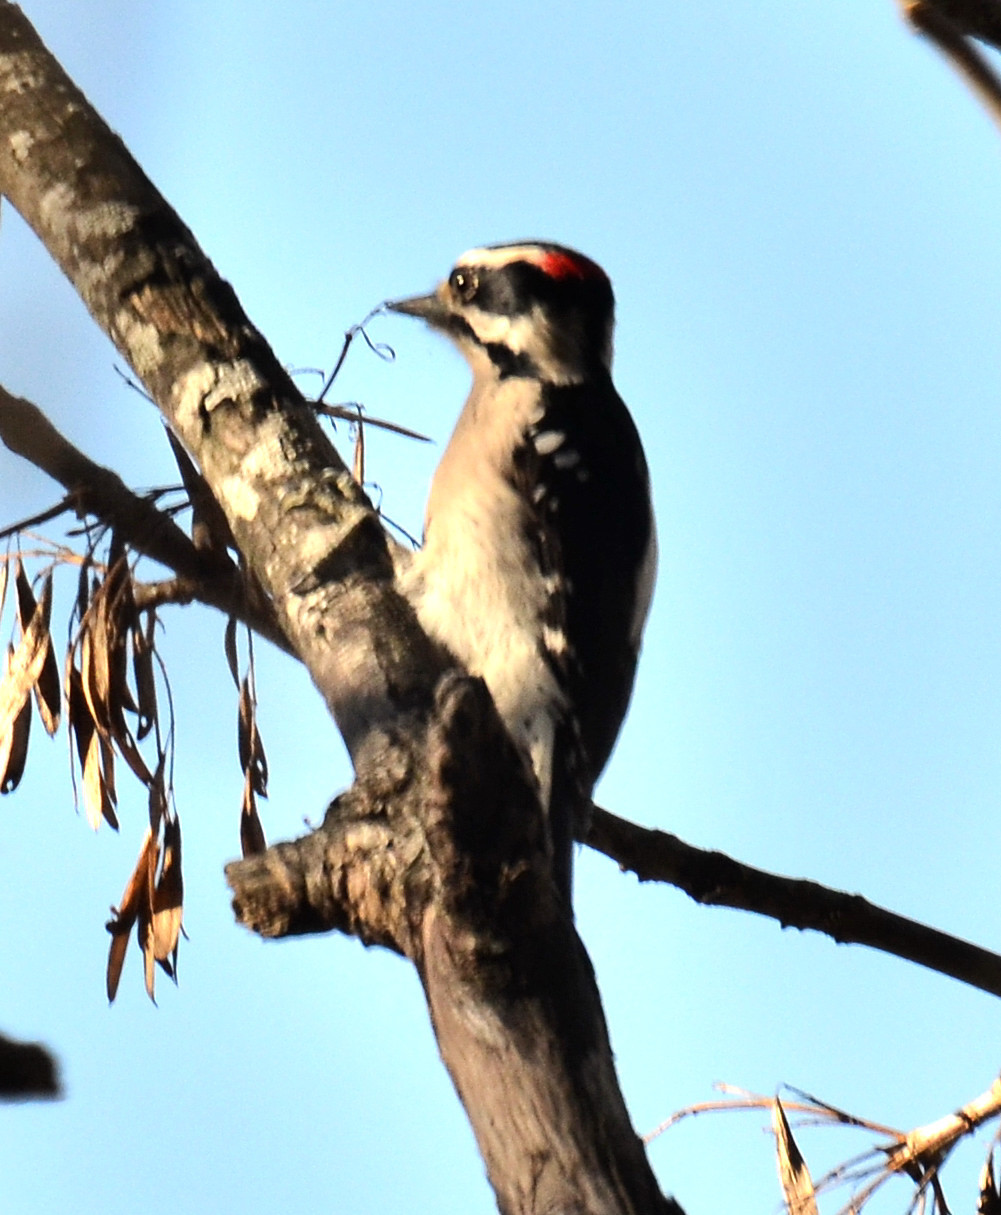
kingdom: Animalia
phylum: Chordata
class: Aves
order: Piciformes
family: Picidae
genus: Dryobates
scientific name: Dryobates pubescens
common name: Downy woodpecker
